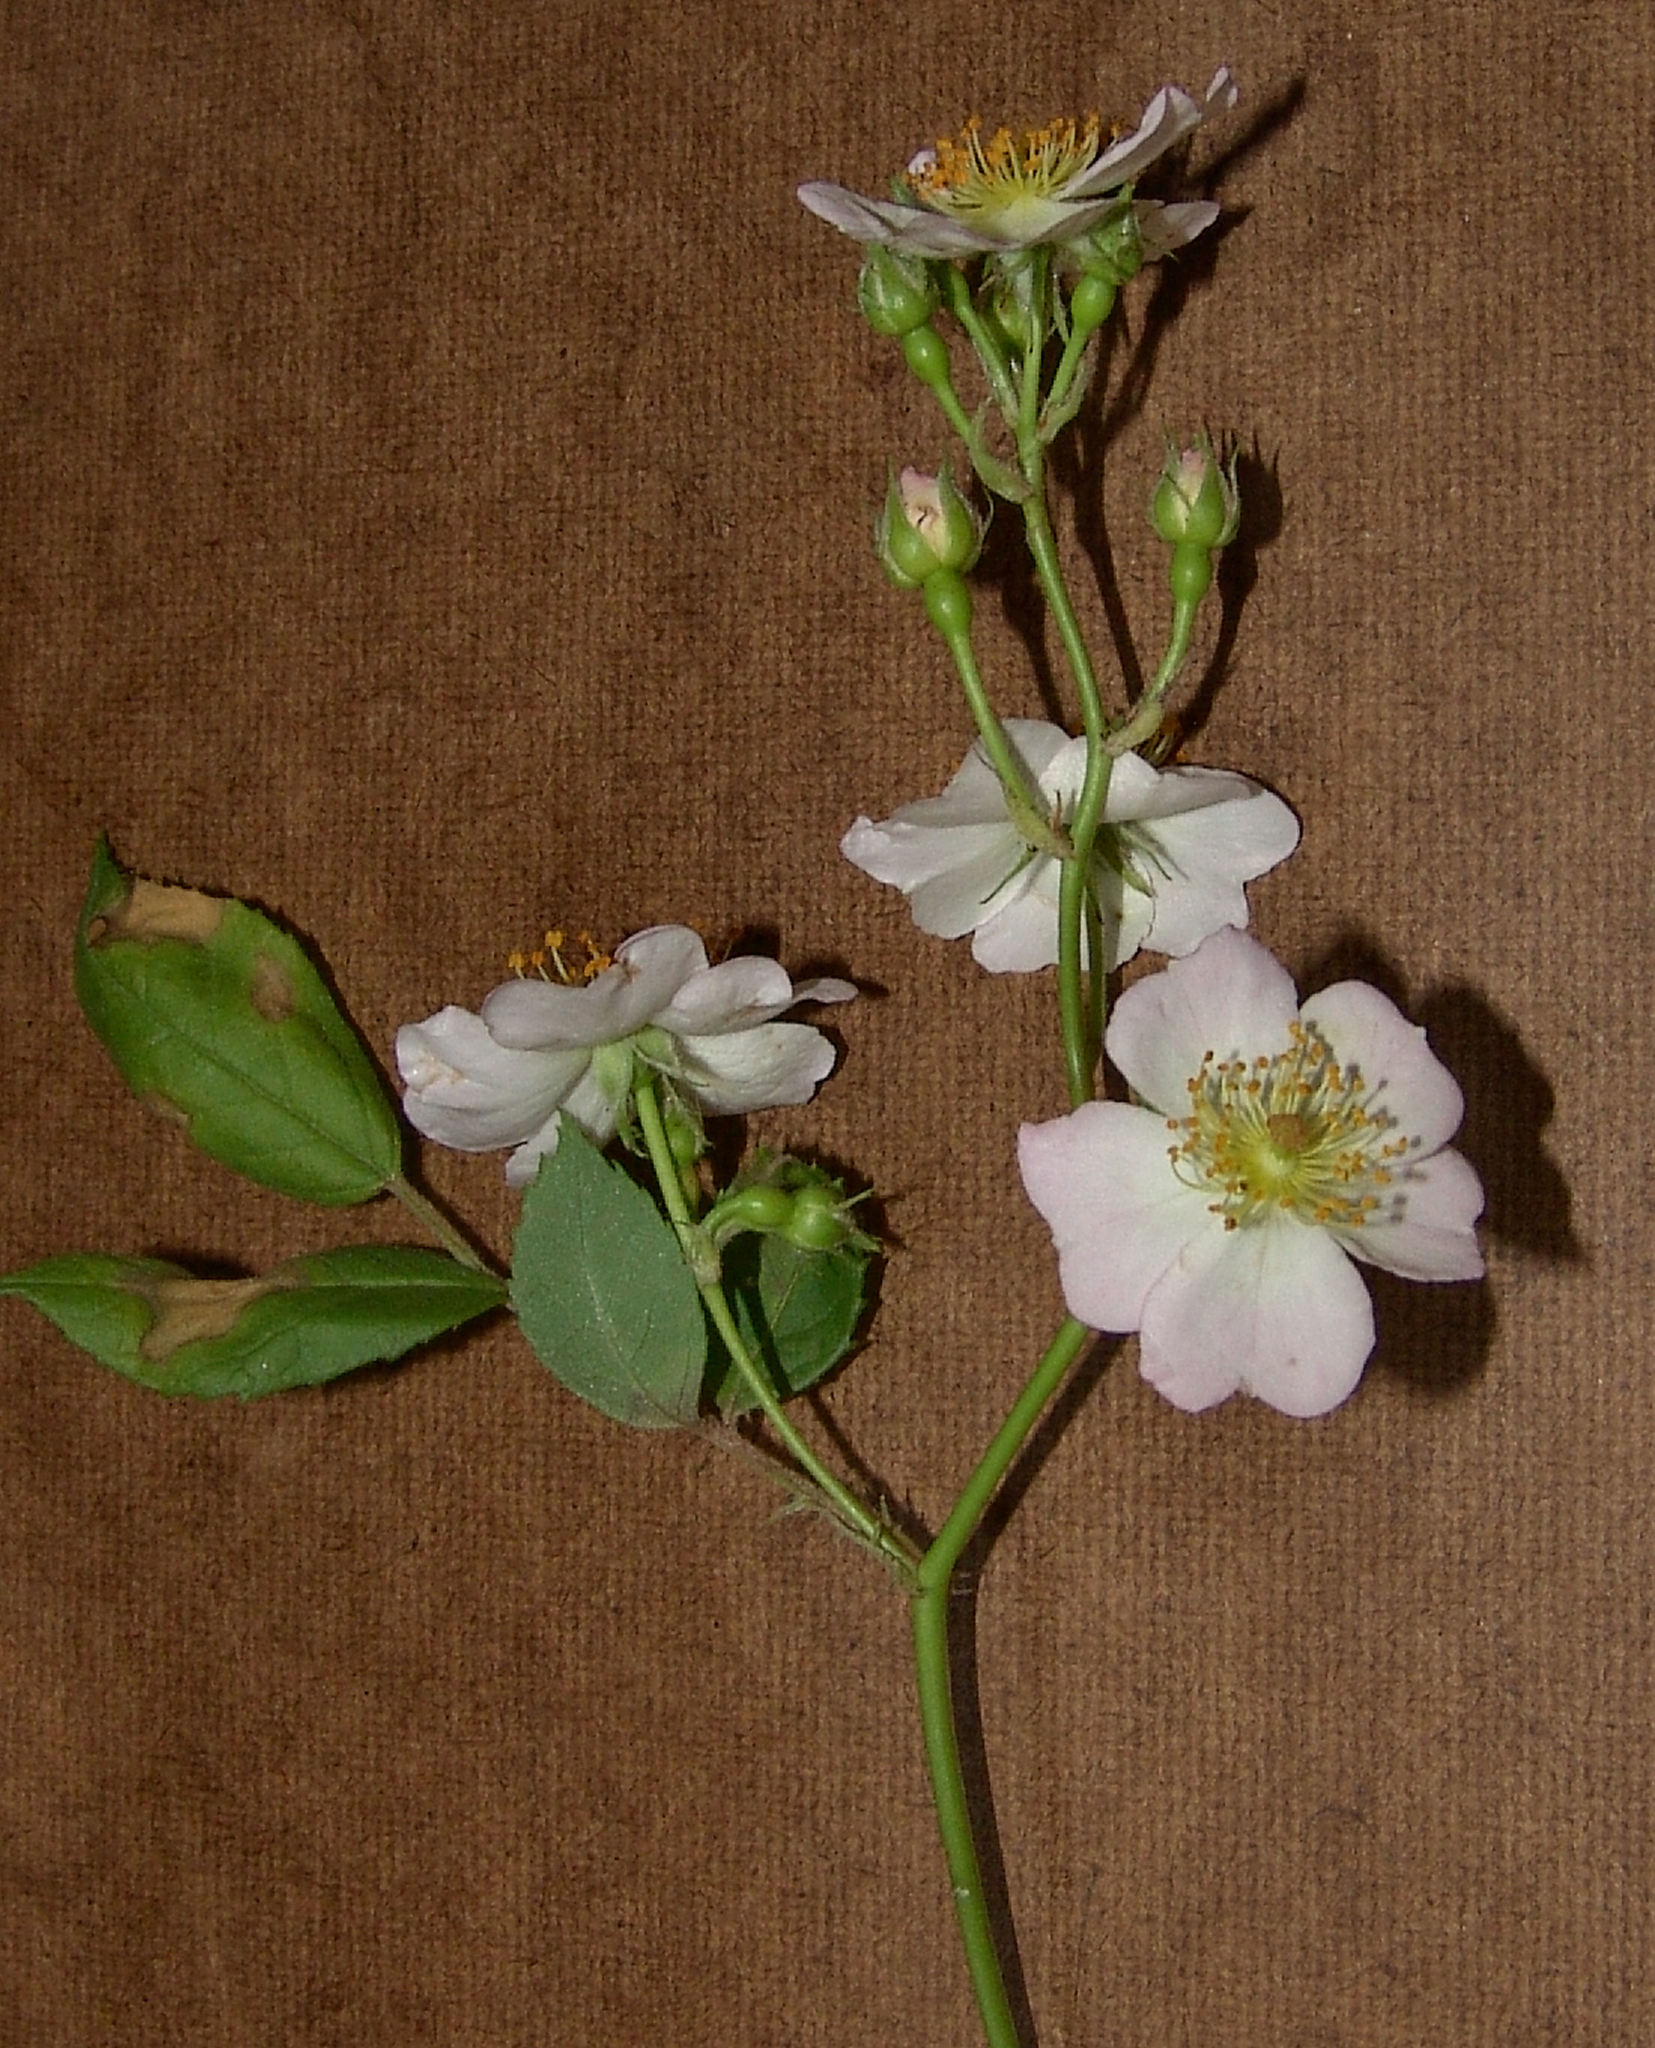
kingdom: Plantae
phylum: Tracheophyta
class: Magnoliopsida
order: Rosales
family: Rosaceae
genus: Rosa
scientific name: Rosa multiflora
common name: Multiflora rose
